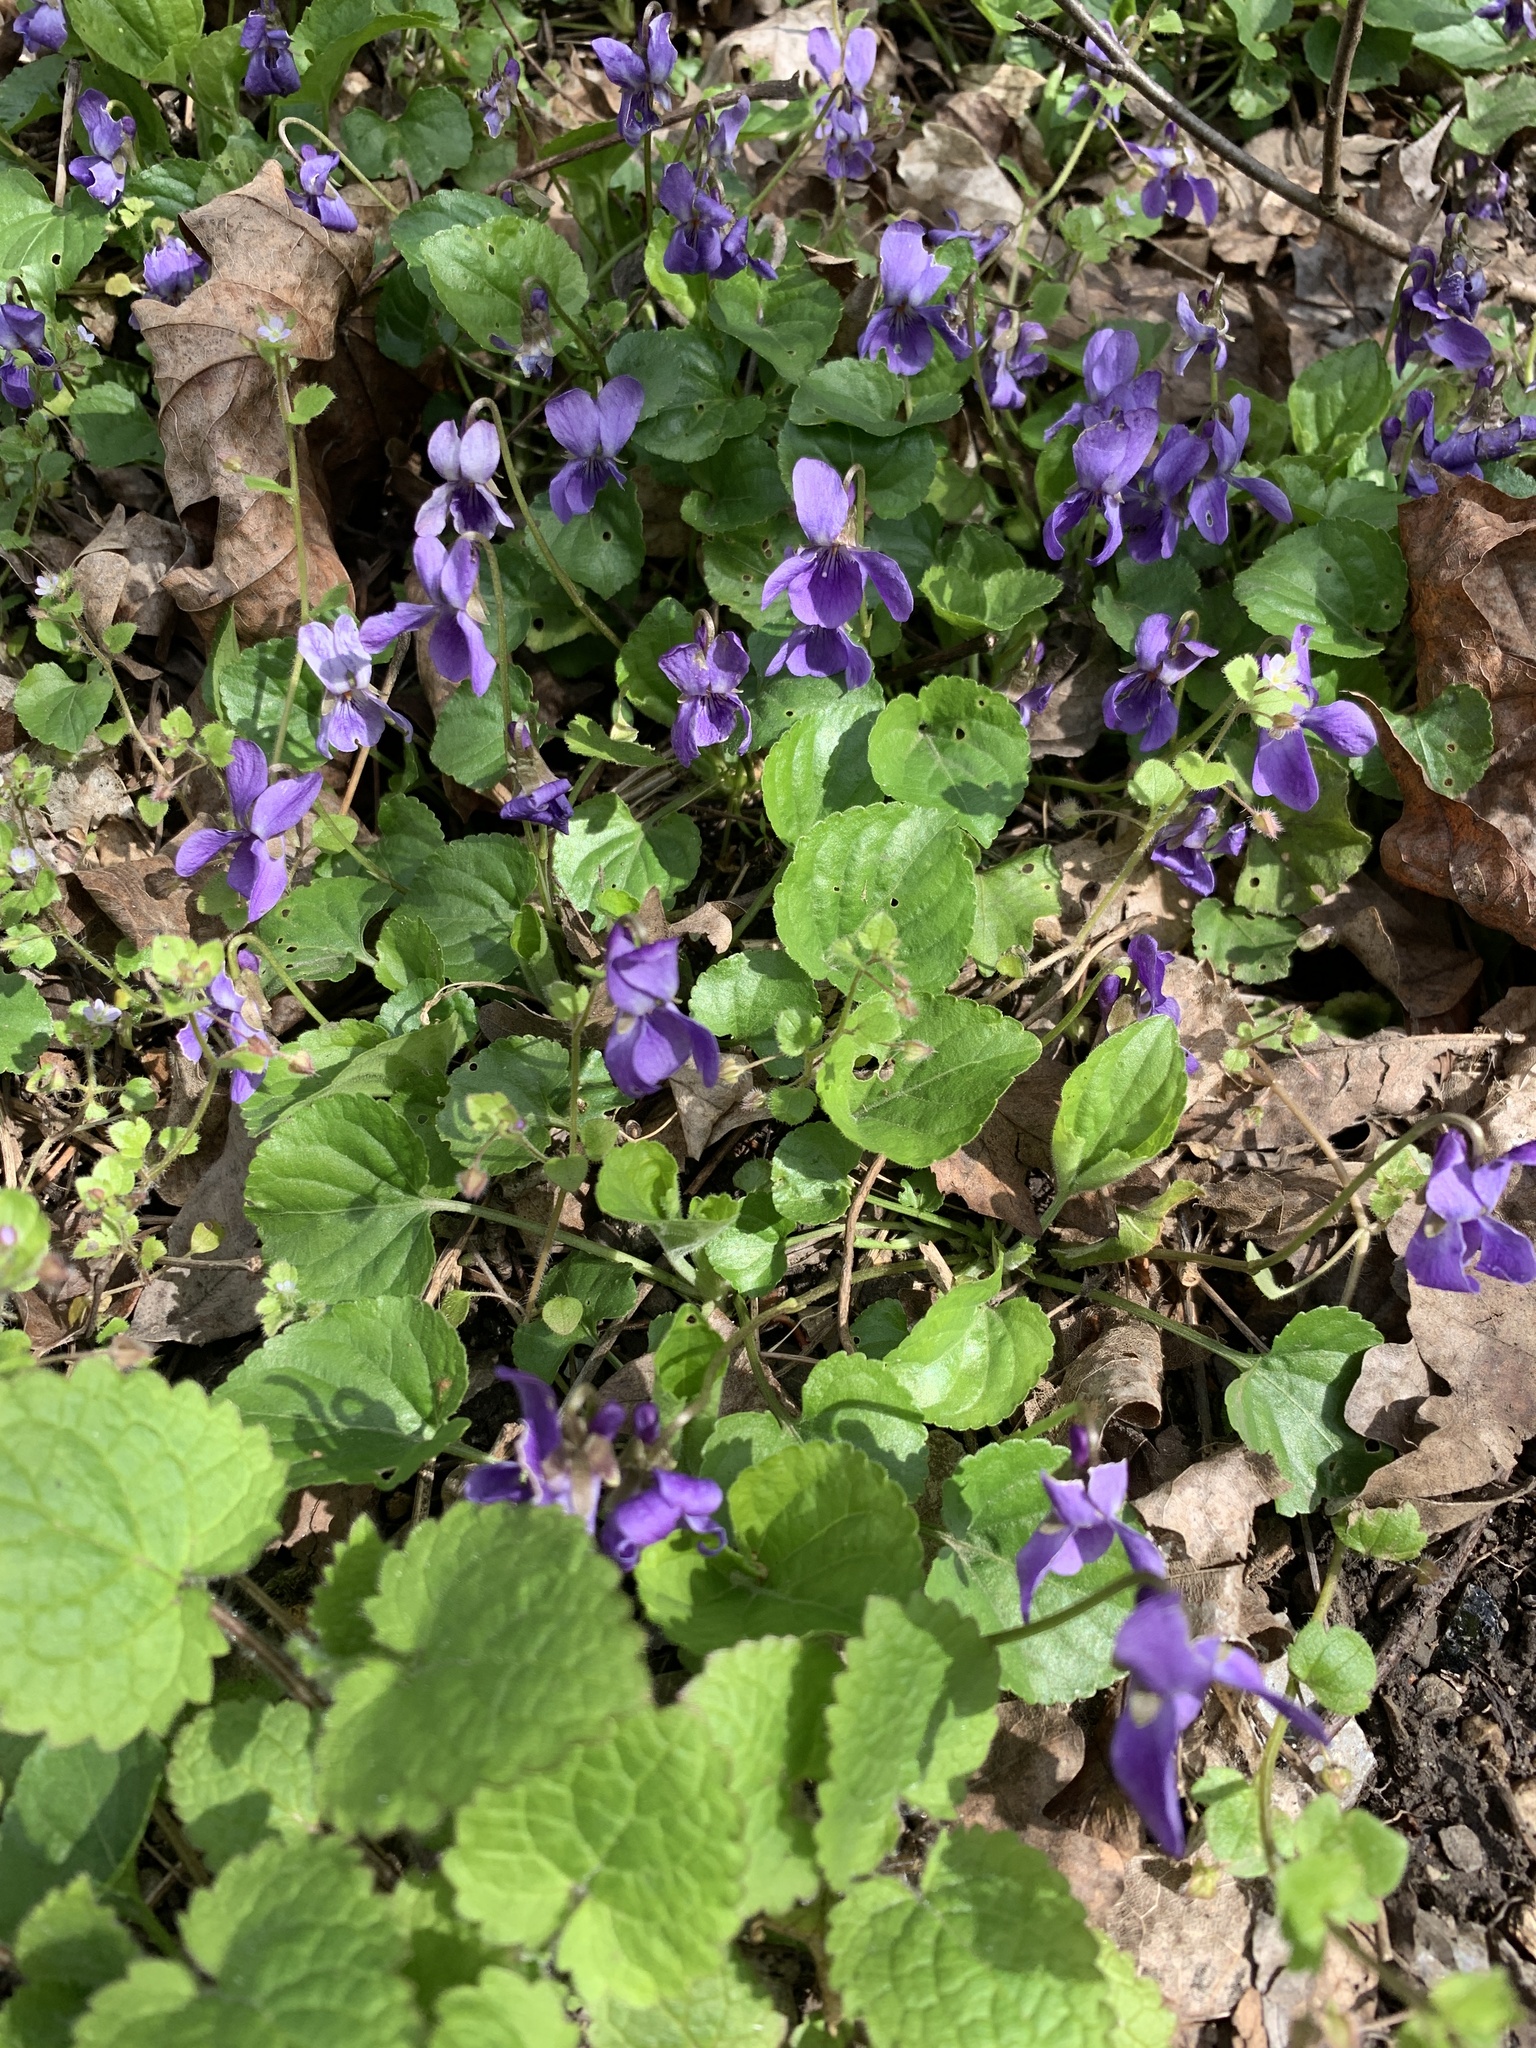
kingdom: Plantae
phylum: Tracheophyta
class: Magnoliopsida
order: Malpighiales
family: Violaceae
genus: Viola
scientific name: Viola odorata
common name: Sweet violet
